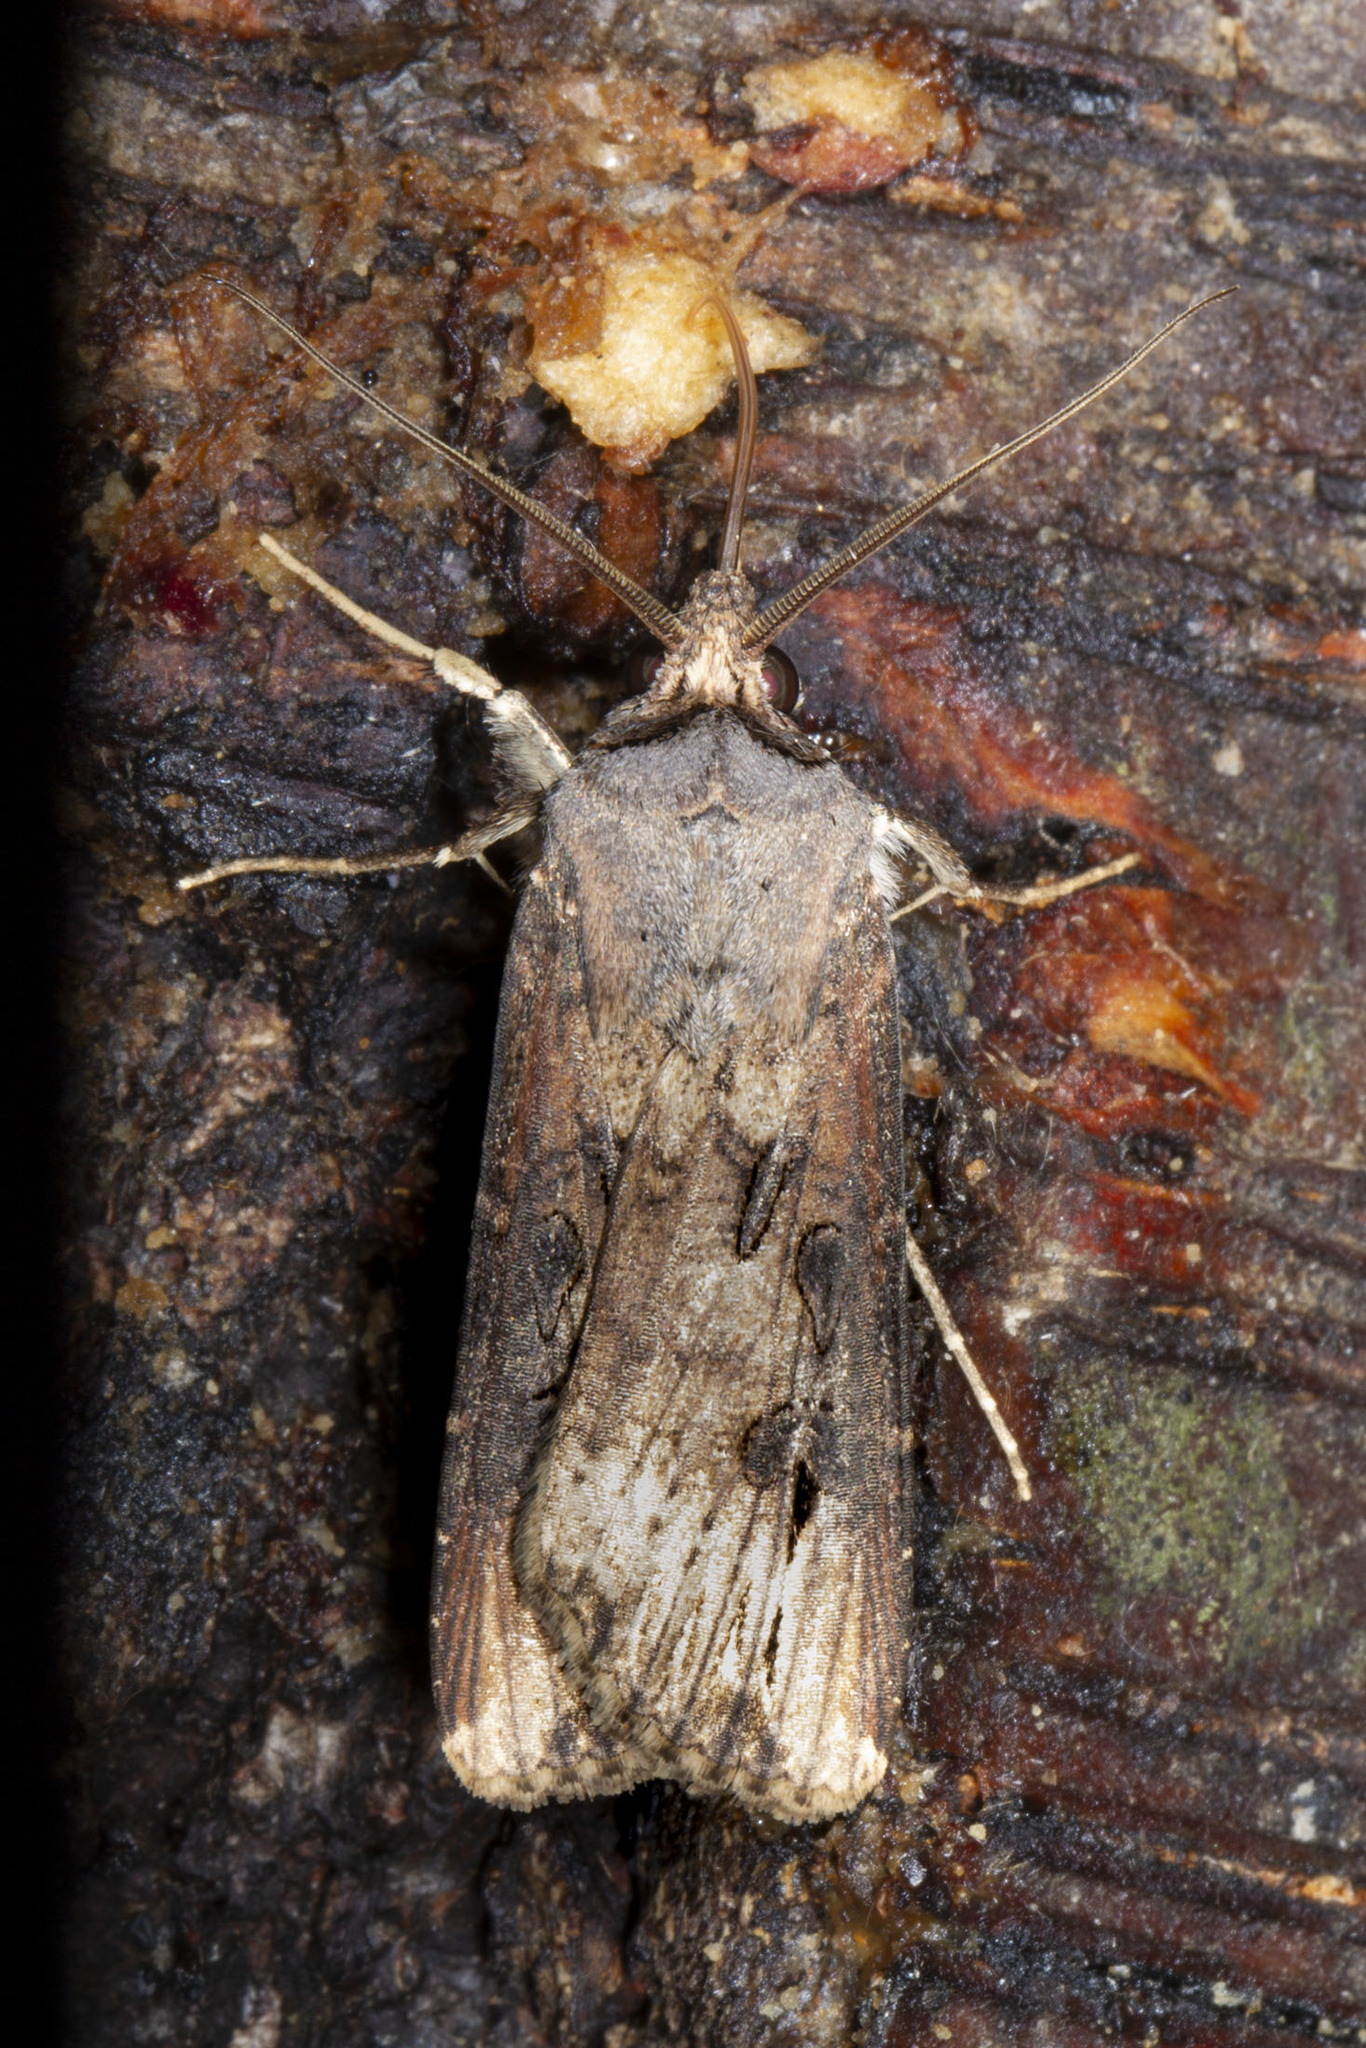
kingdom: Animalia
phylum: Arthropoda
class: Insecta
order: Lepidoptera
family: Noctuidae
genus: Agrotis
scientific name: Agrotis ipsilon
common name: Dark sword-grass
